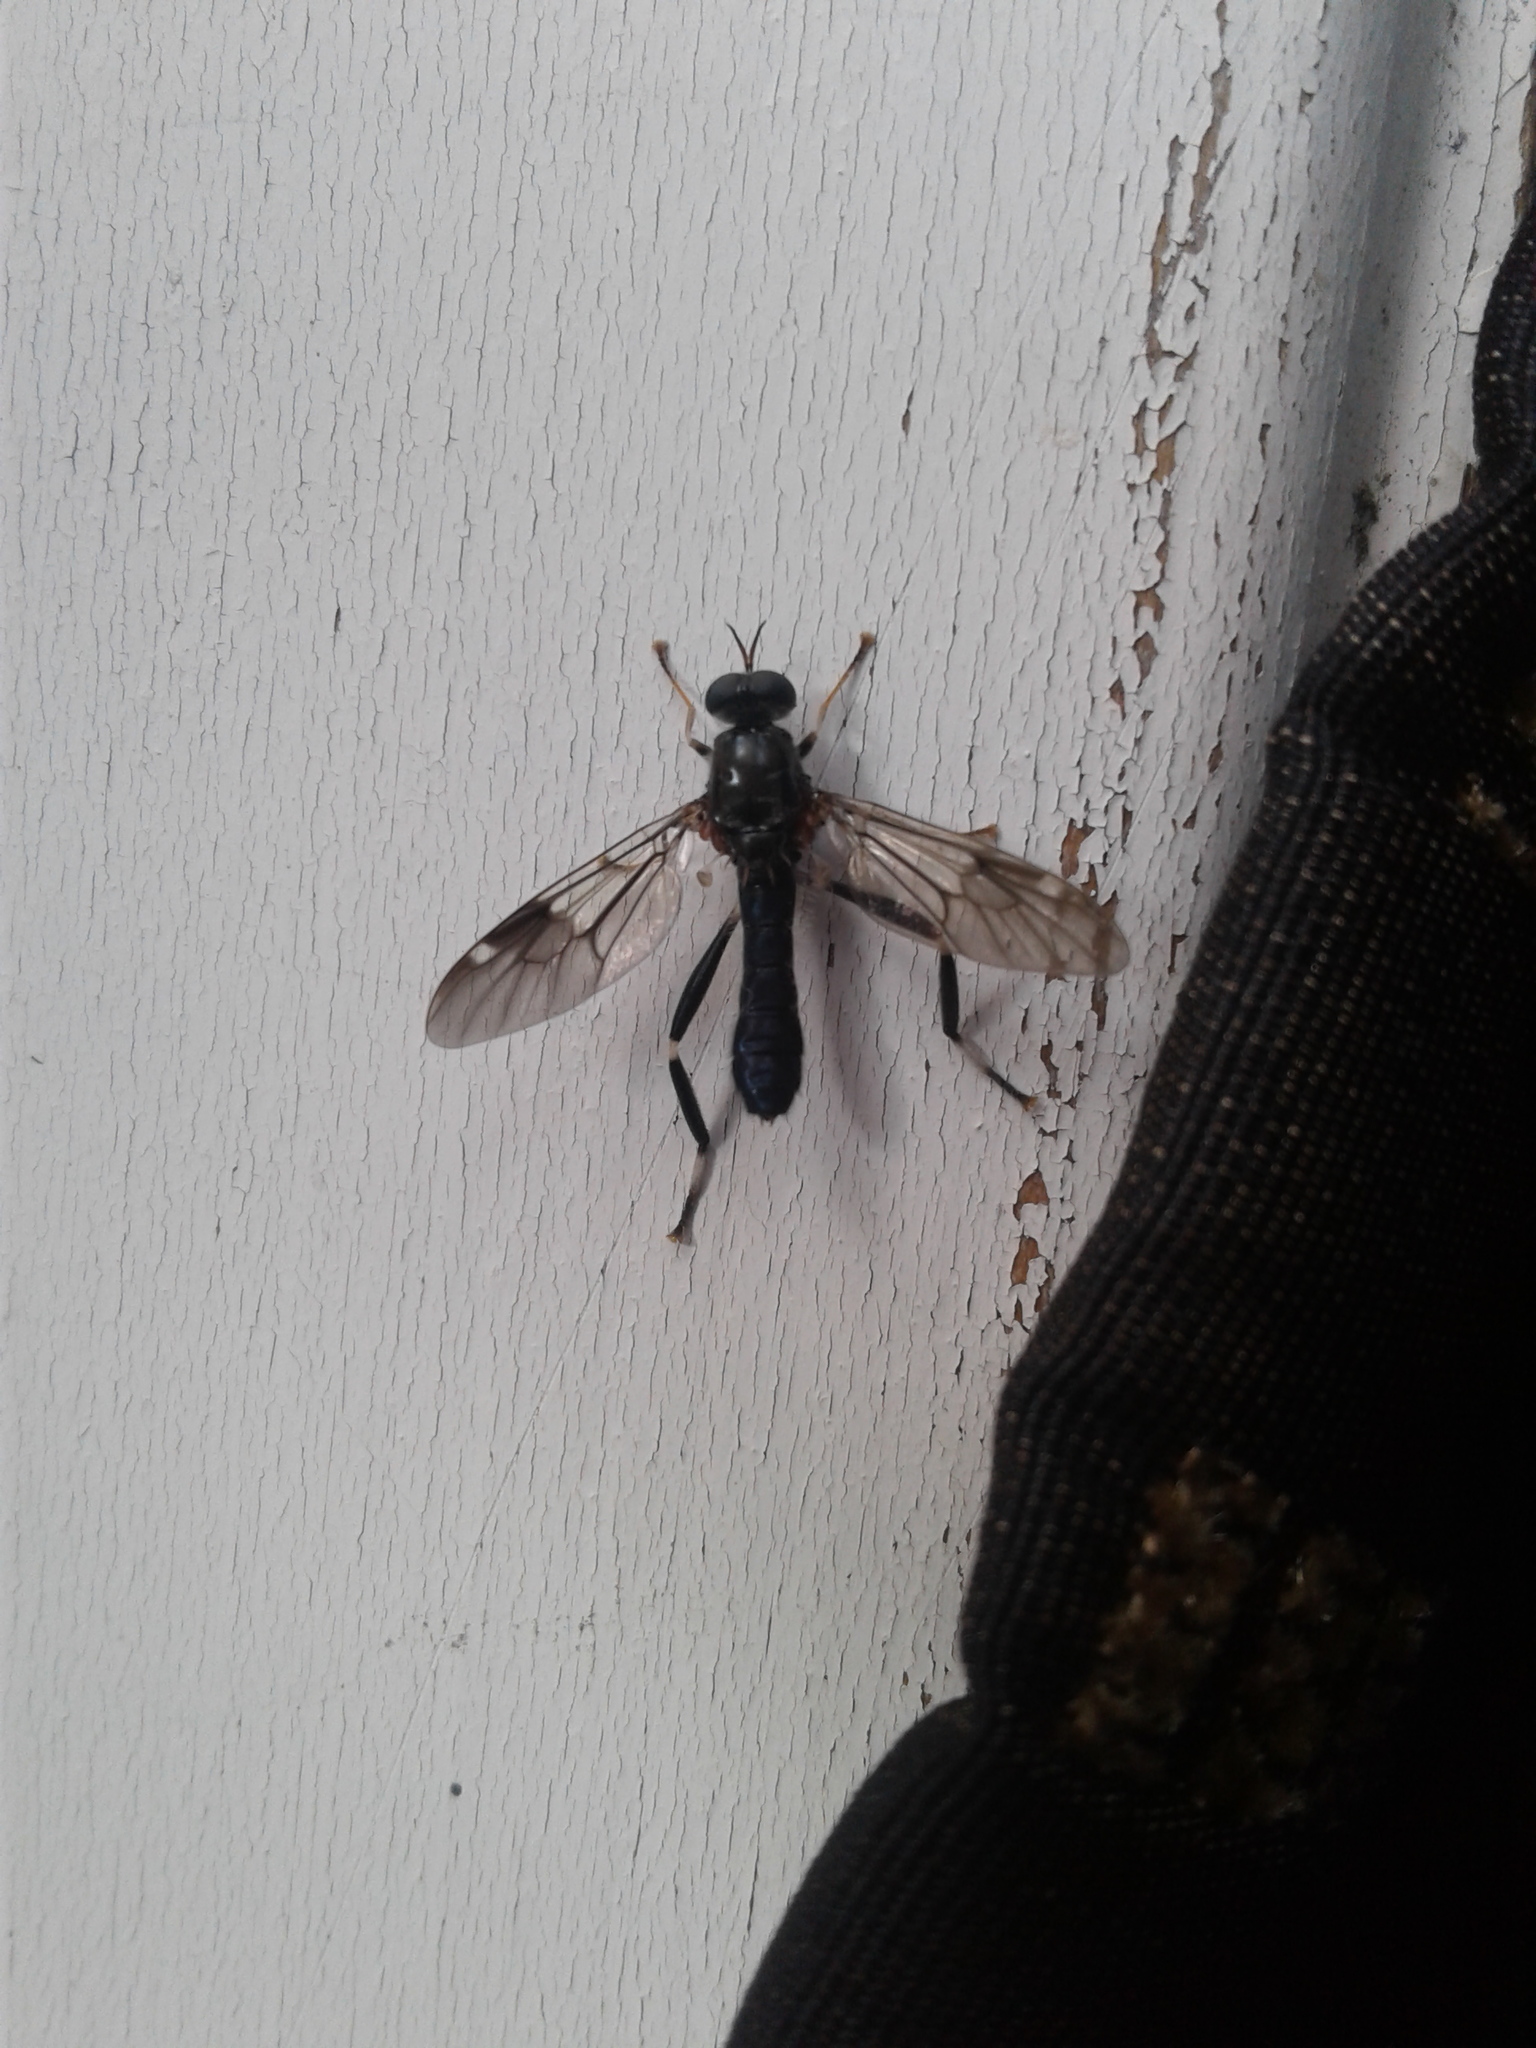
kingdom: Animalia
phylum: Arthropoda
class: Insecta
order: Diptera
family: Stratiomyidae
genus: Exaireta
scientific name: Exaireta spinigera
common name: Blue soldier fly
